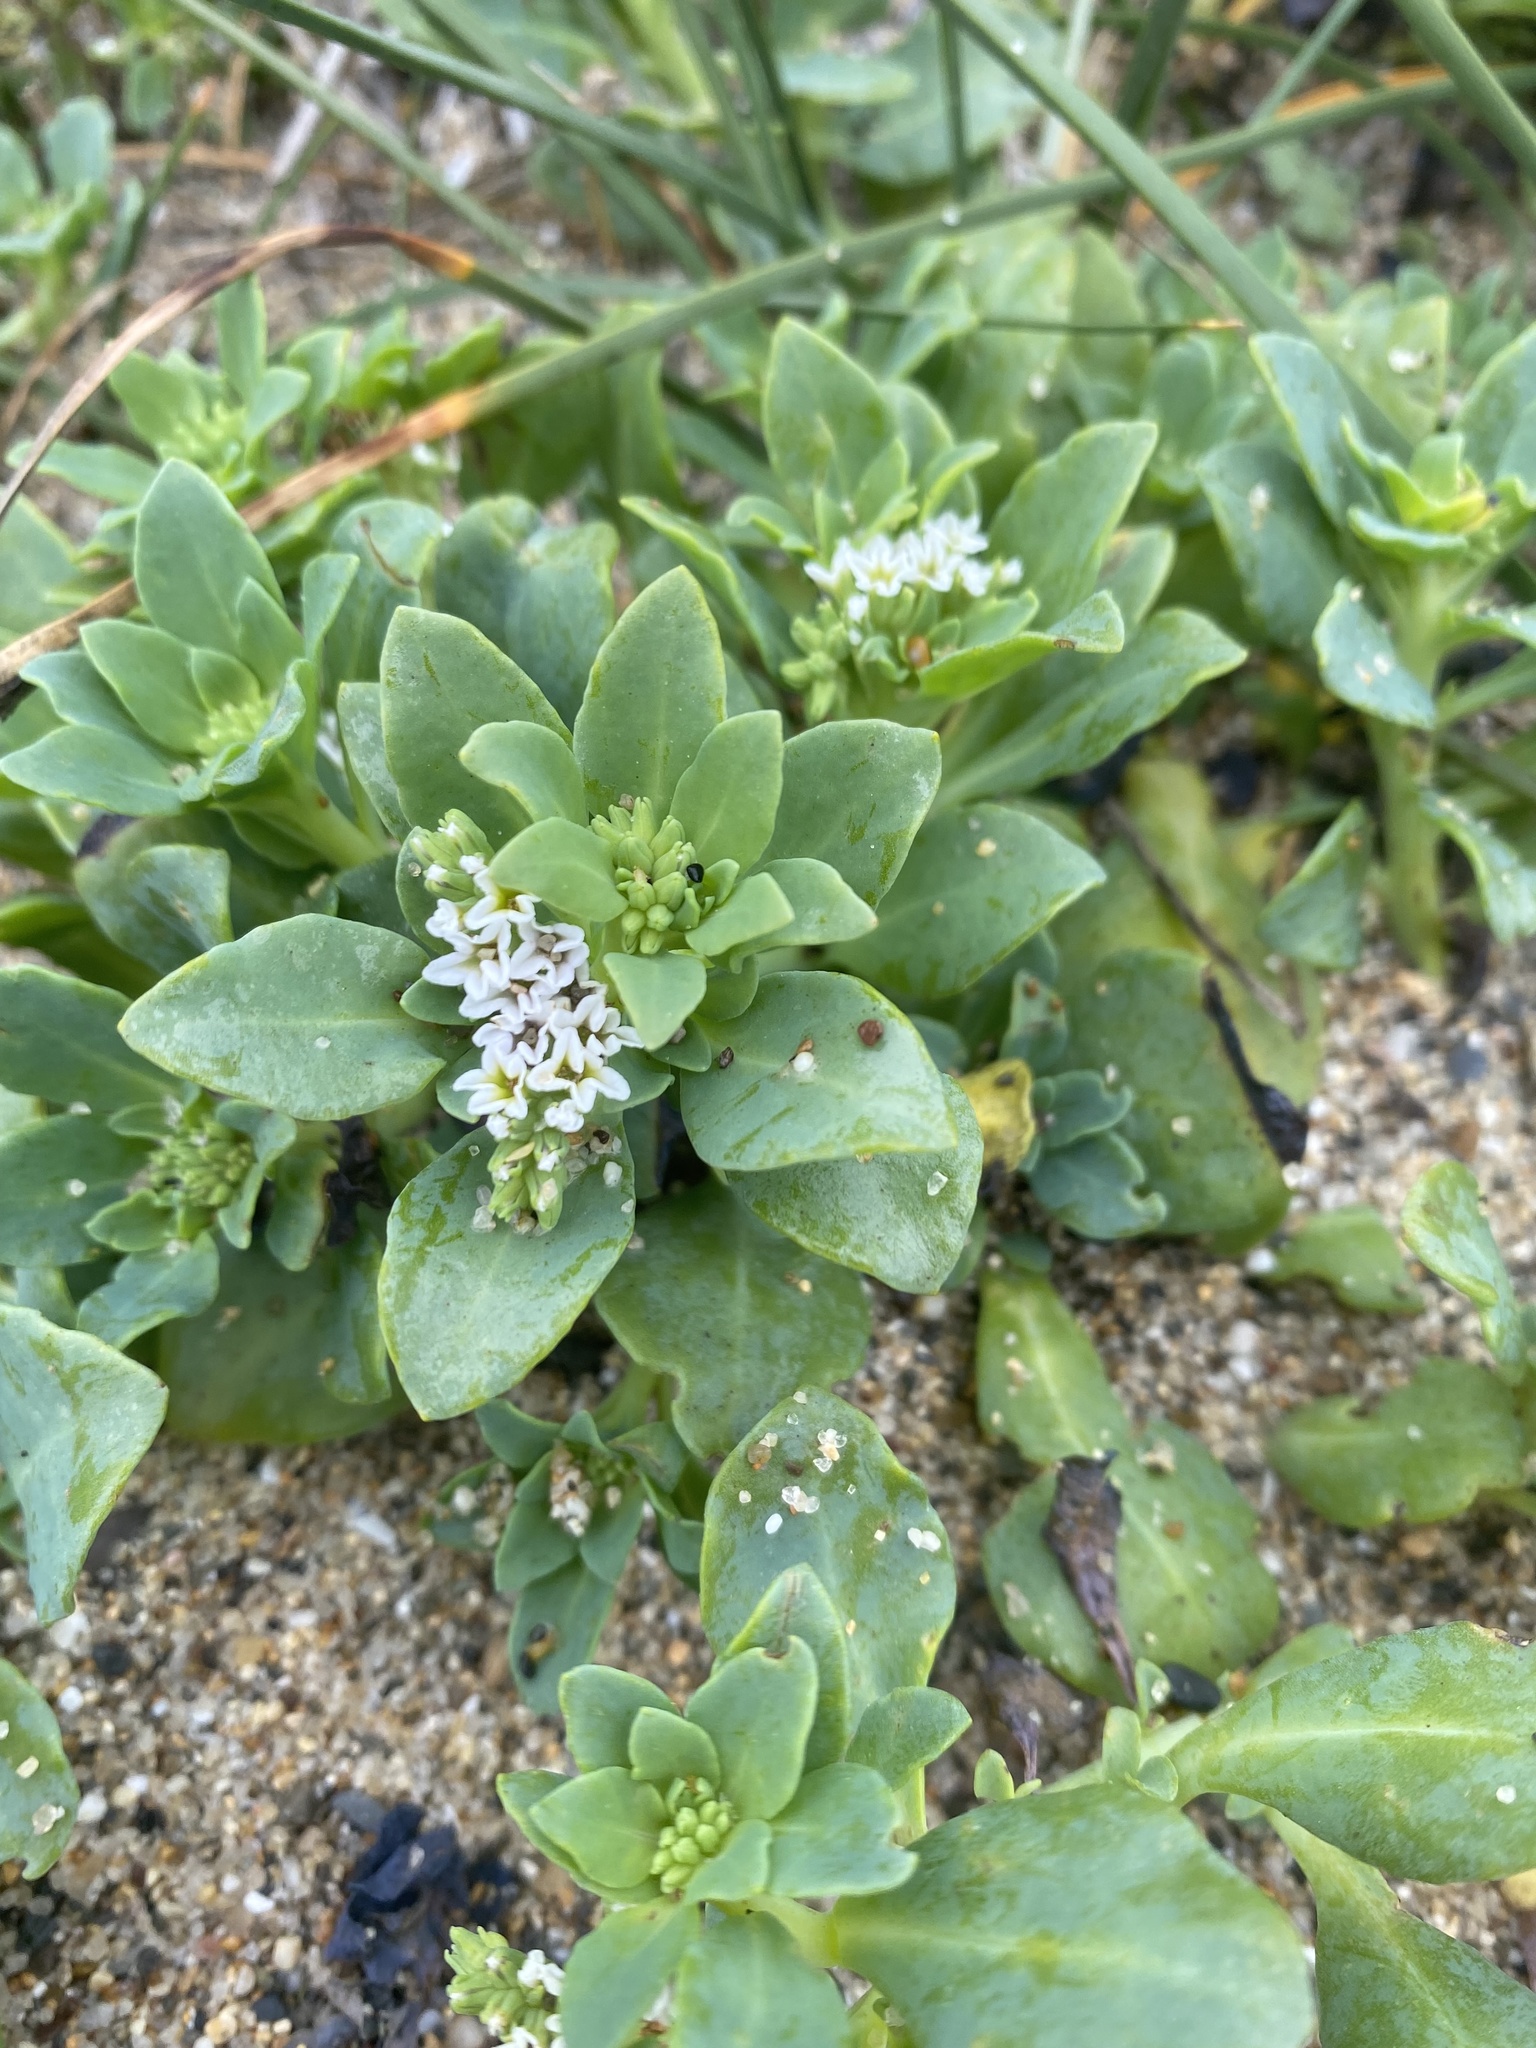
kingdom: Plantae
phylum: Tracheophyta
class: Magnoliopsida
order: Boraginales
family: Heliotropiaceae
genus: Heliotropium
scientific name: Heliotropium curassavicum
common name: Seaside heliotrope
